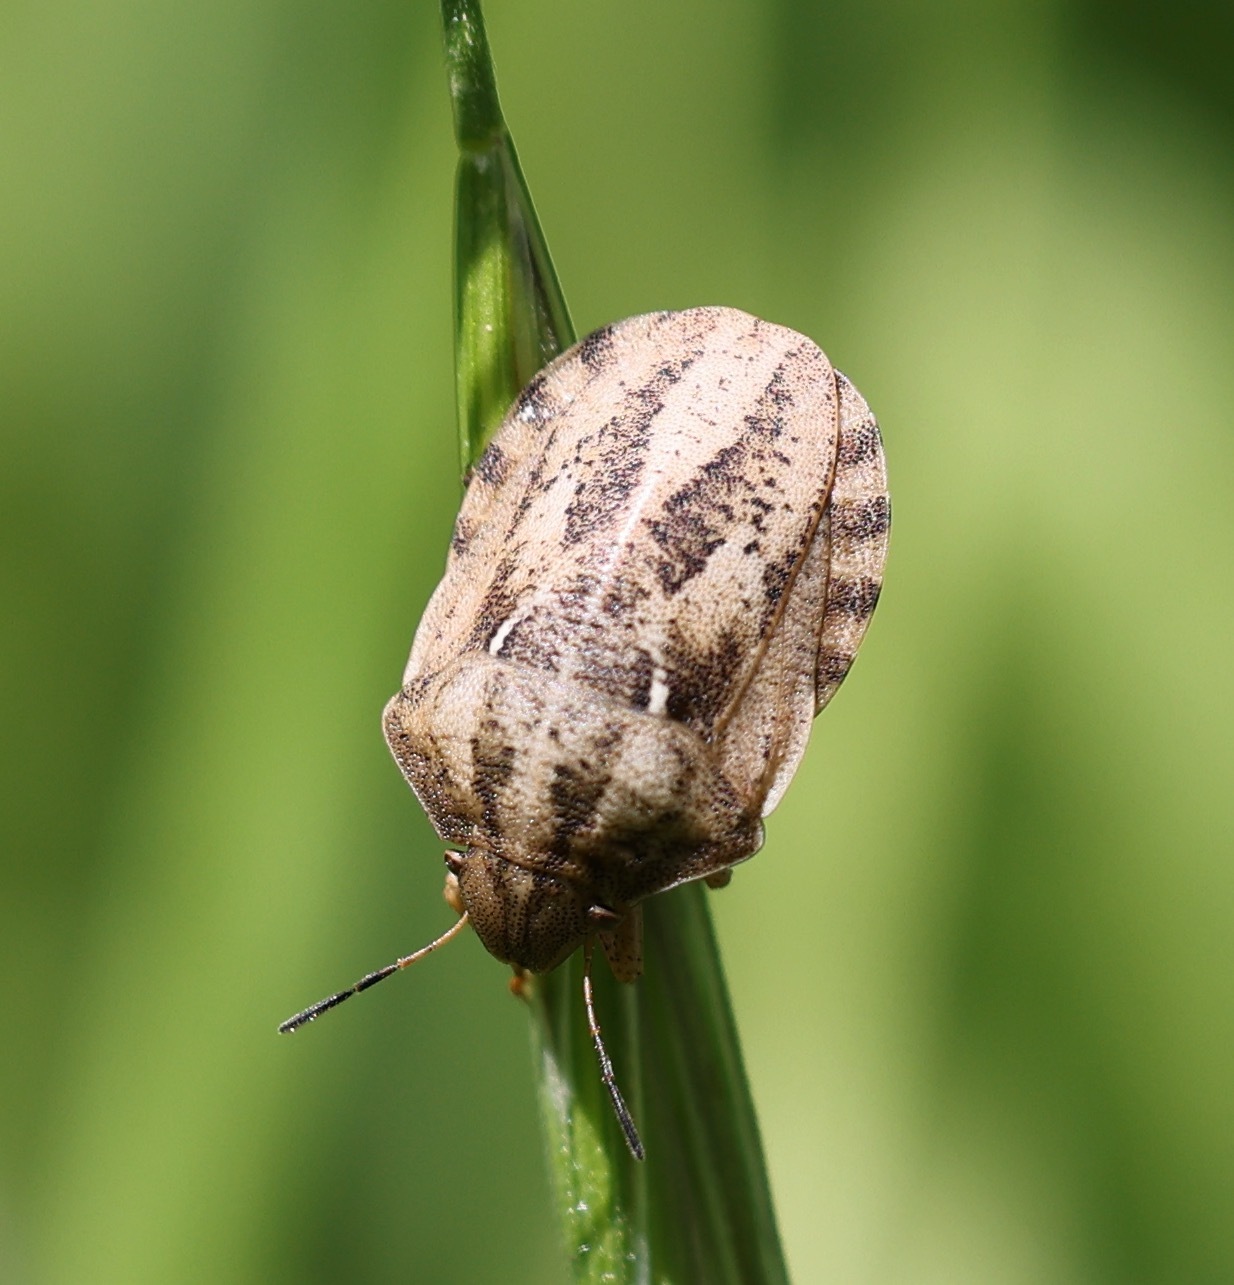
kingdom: Animalia
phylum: Arthropoda
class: Insecta
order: Hemiptera
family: Scutelleridae
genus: Eurygaster
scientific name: Eurygaster testudinaria
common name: Tortoise bug
